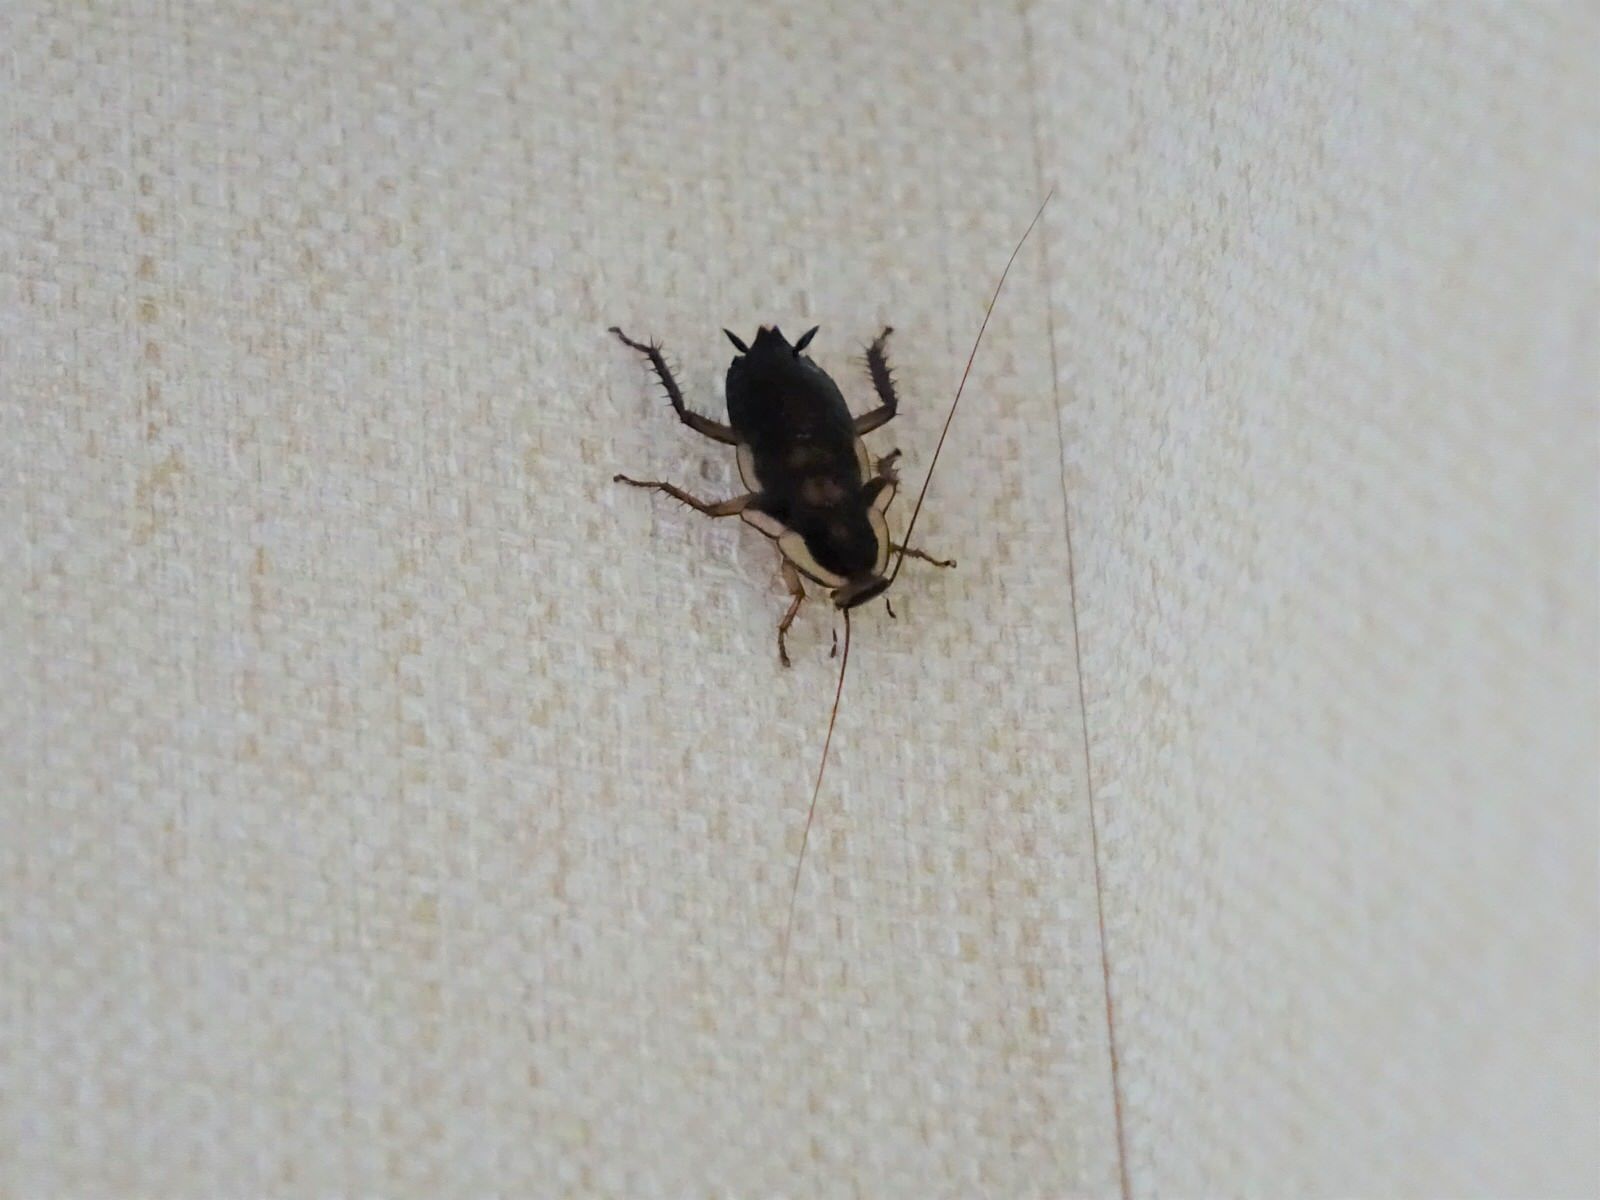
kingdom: Animalia
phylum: Arthropoda
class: Insecta
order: Blattodea
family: Blattidae
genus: Drymaplaneta
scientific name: Drymaplaneta semivitta
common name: Gisborne cockroach
